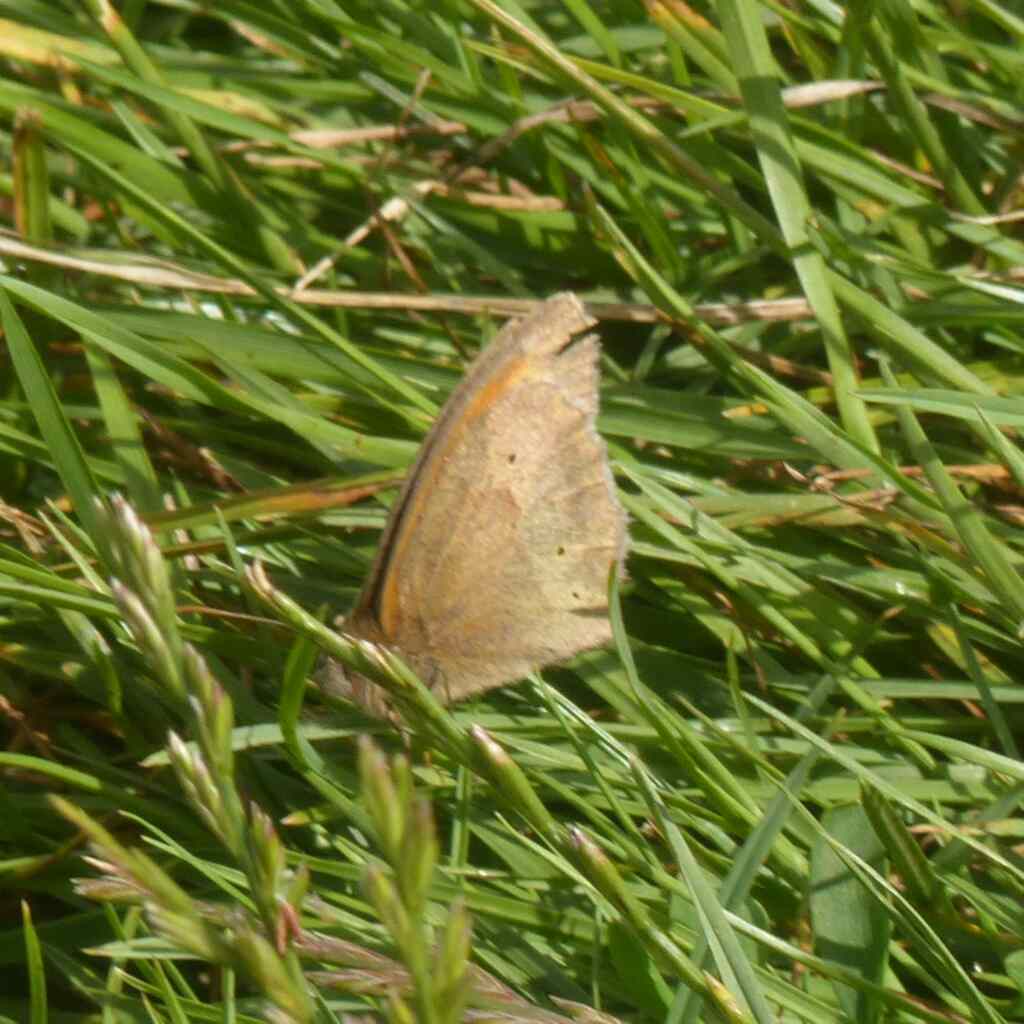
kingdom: Animalia
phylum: Arthropoda
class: Insecta
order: Lepidoptera
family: Nymphalidae
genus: Maniola
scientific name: Maniola jurtina
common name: Meadow brown
